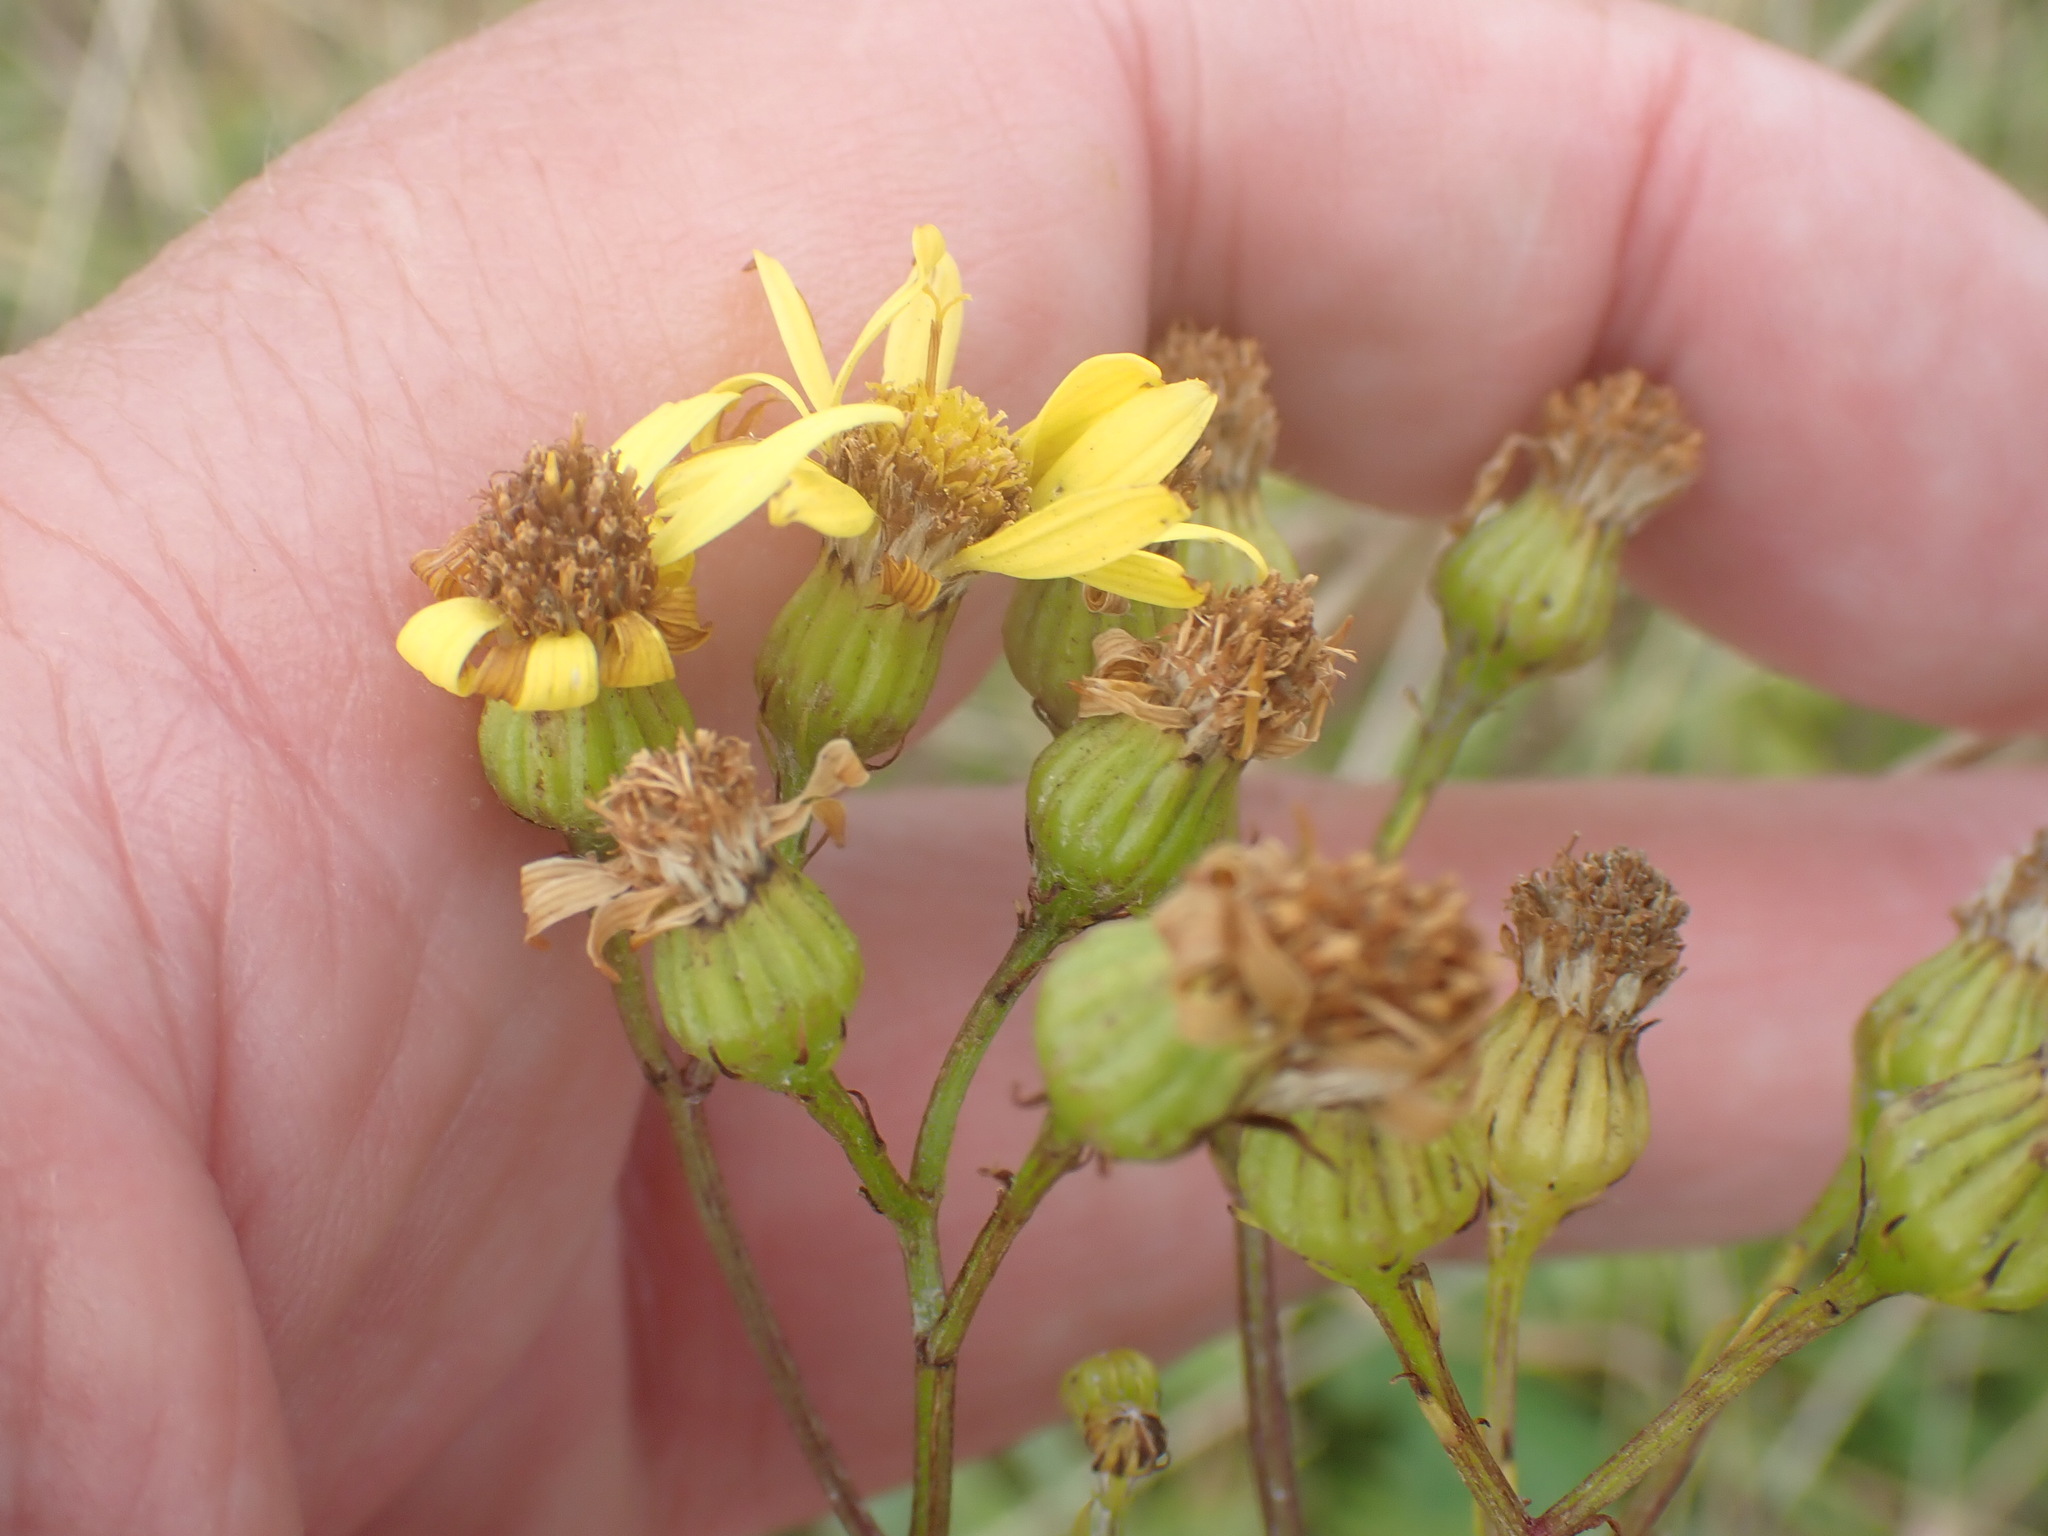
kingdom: Plantae
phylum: Tracheophyta
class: Magnoliopsida
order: Asterales
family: Asteraceae
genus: Jacobaea
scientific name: Jacobaea erucifolia
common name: Hoary ragwort
